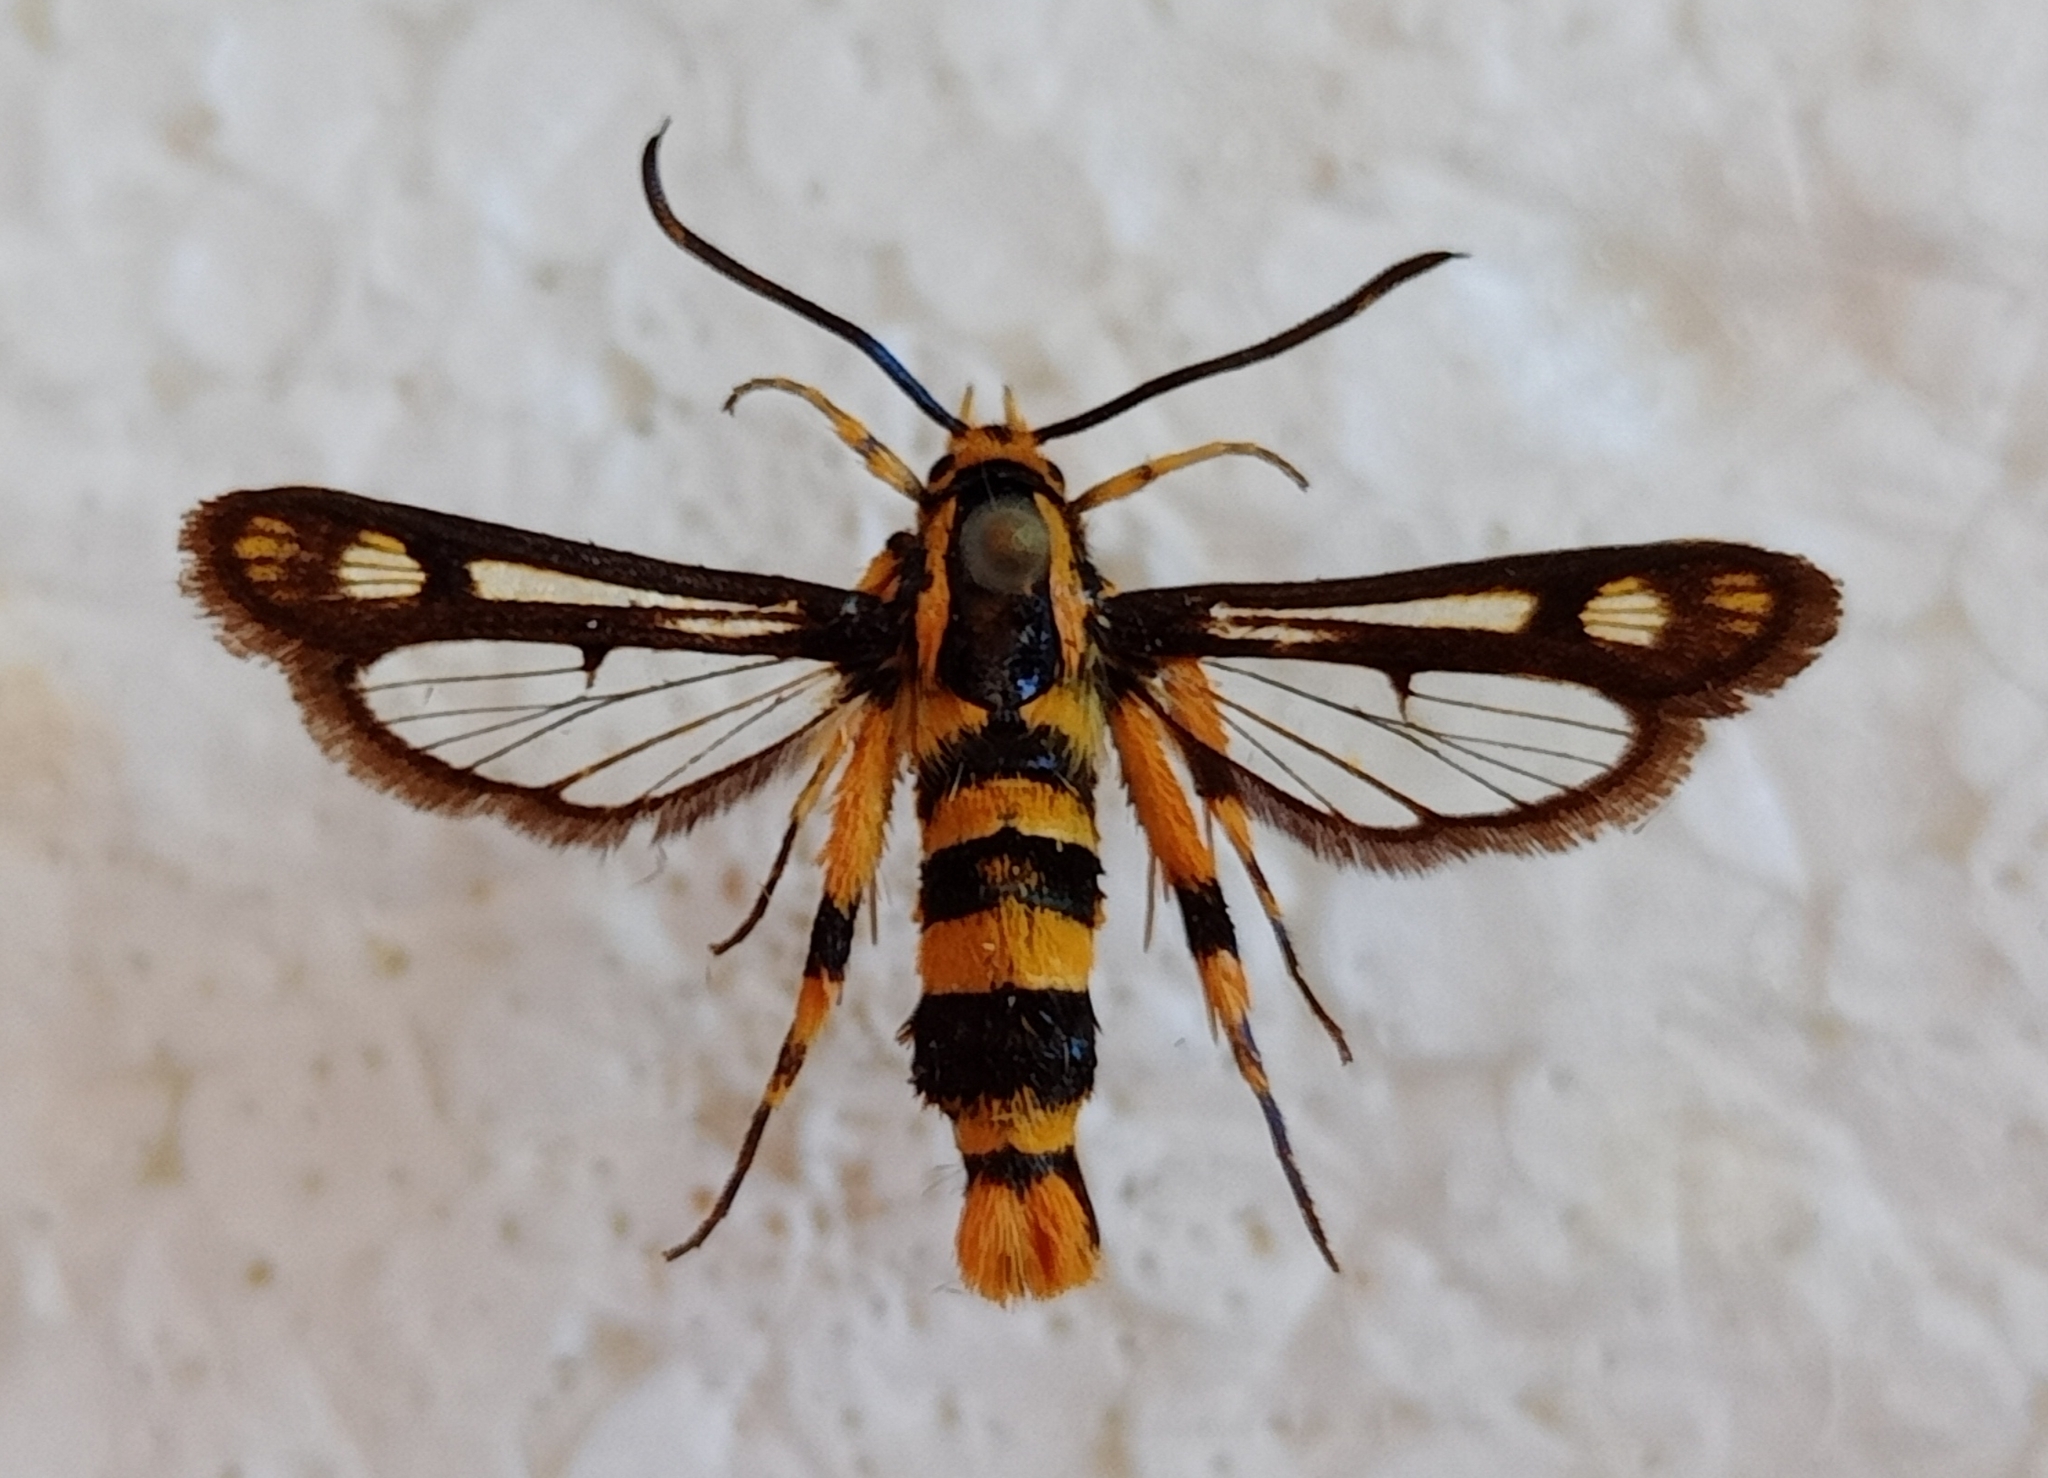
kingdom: Animalia
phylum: Arthropoda
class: Insecta
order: Lepidoptera
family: Sesiidae
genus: Chamaesphecia
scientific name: Chamaesphecia masariformis
